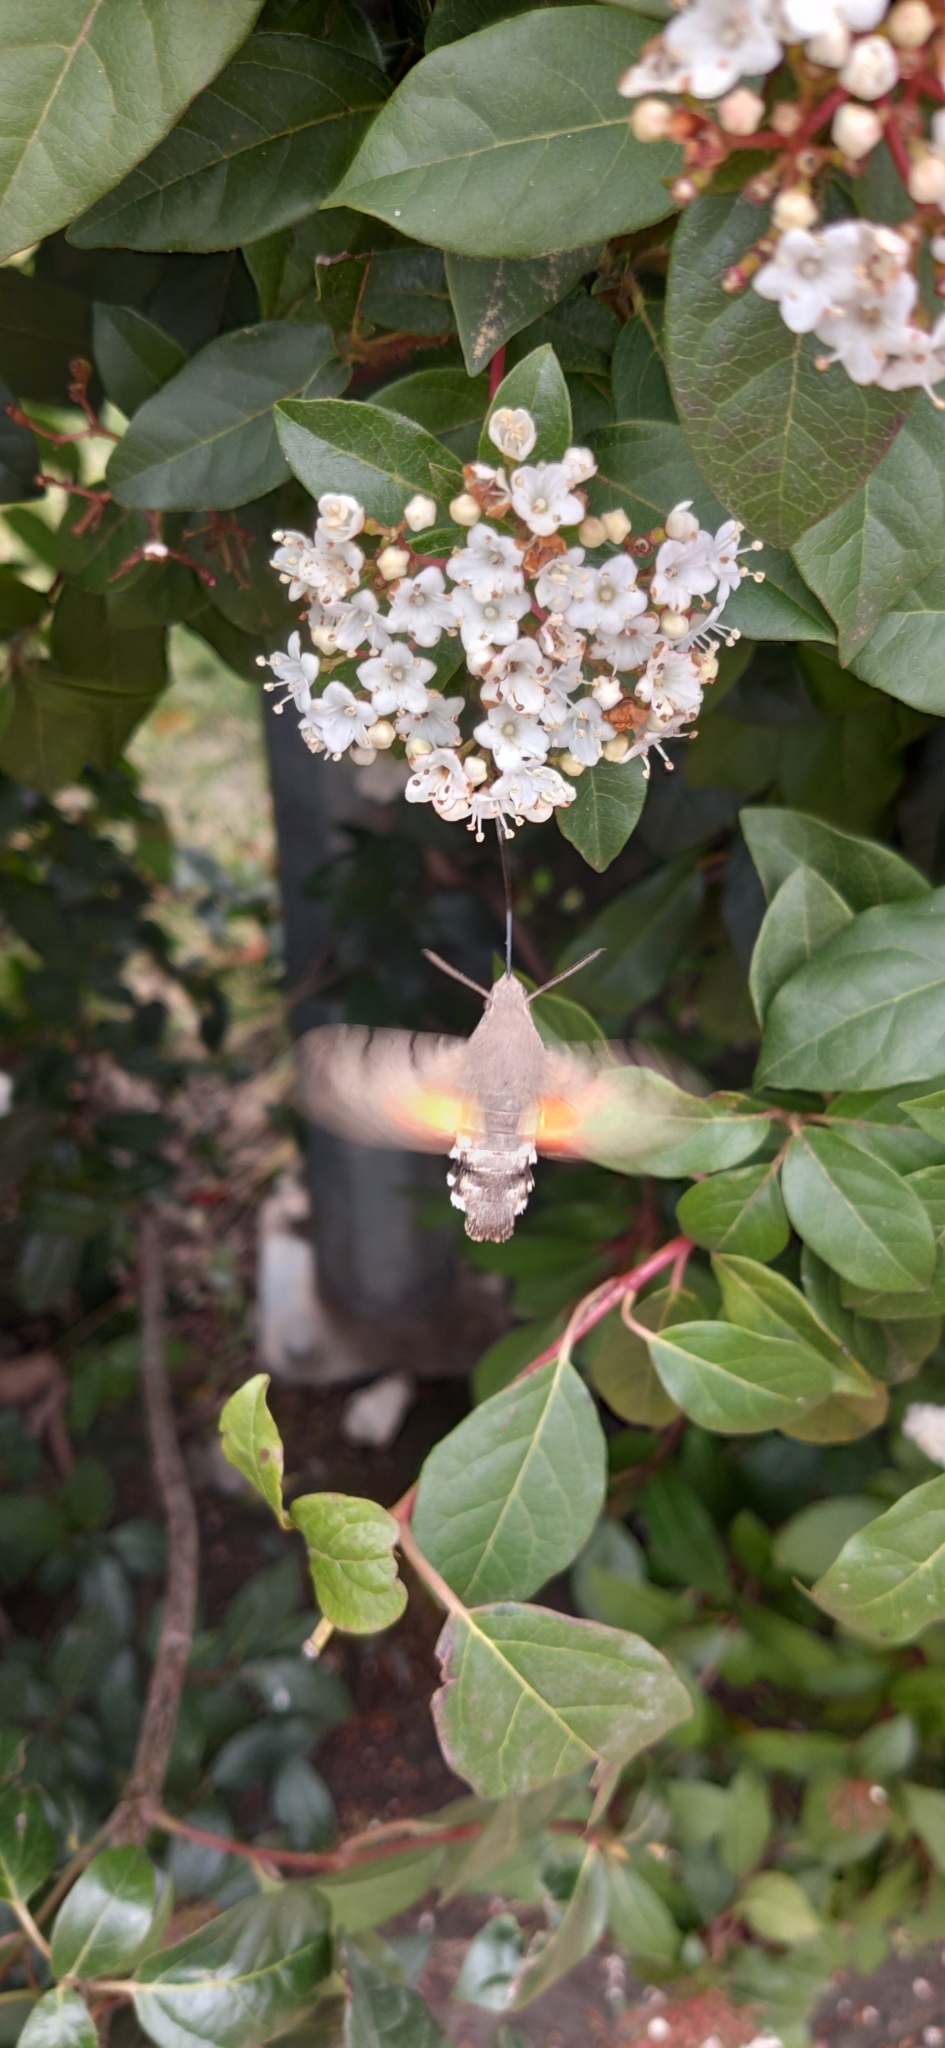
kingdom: Animalia
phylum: Arthropoda
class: Insecta
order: Lepidoptera
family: Sphingidae
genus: Macroglossum
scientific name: Macroglossum stellatarum
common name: Humming-bird hawk-moth
